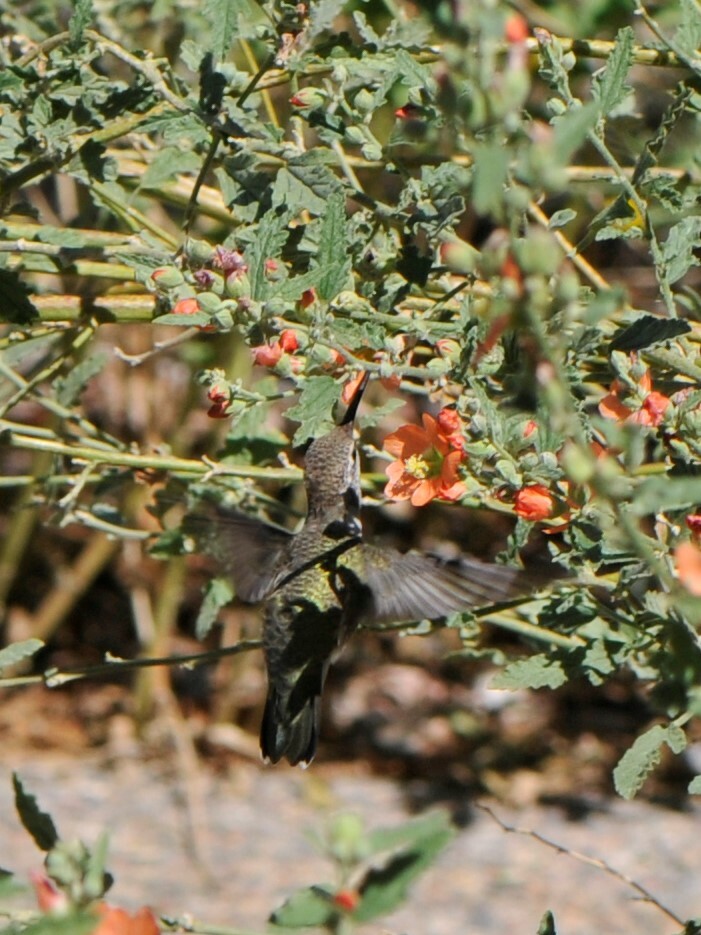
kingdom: Animalia
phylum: Chordata
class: Aves
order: Apodiformes
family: Trochilidae
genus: Archilochus
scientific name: Archilochus alexandri
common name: Black-chinned hummingbird
